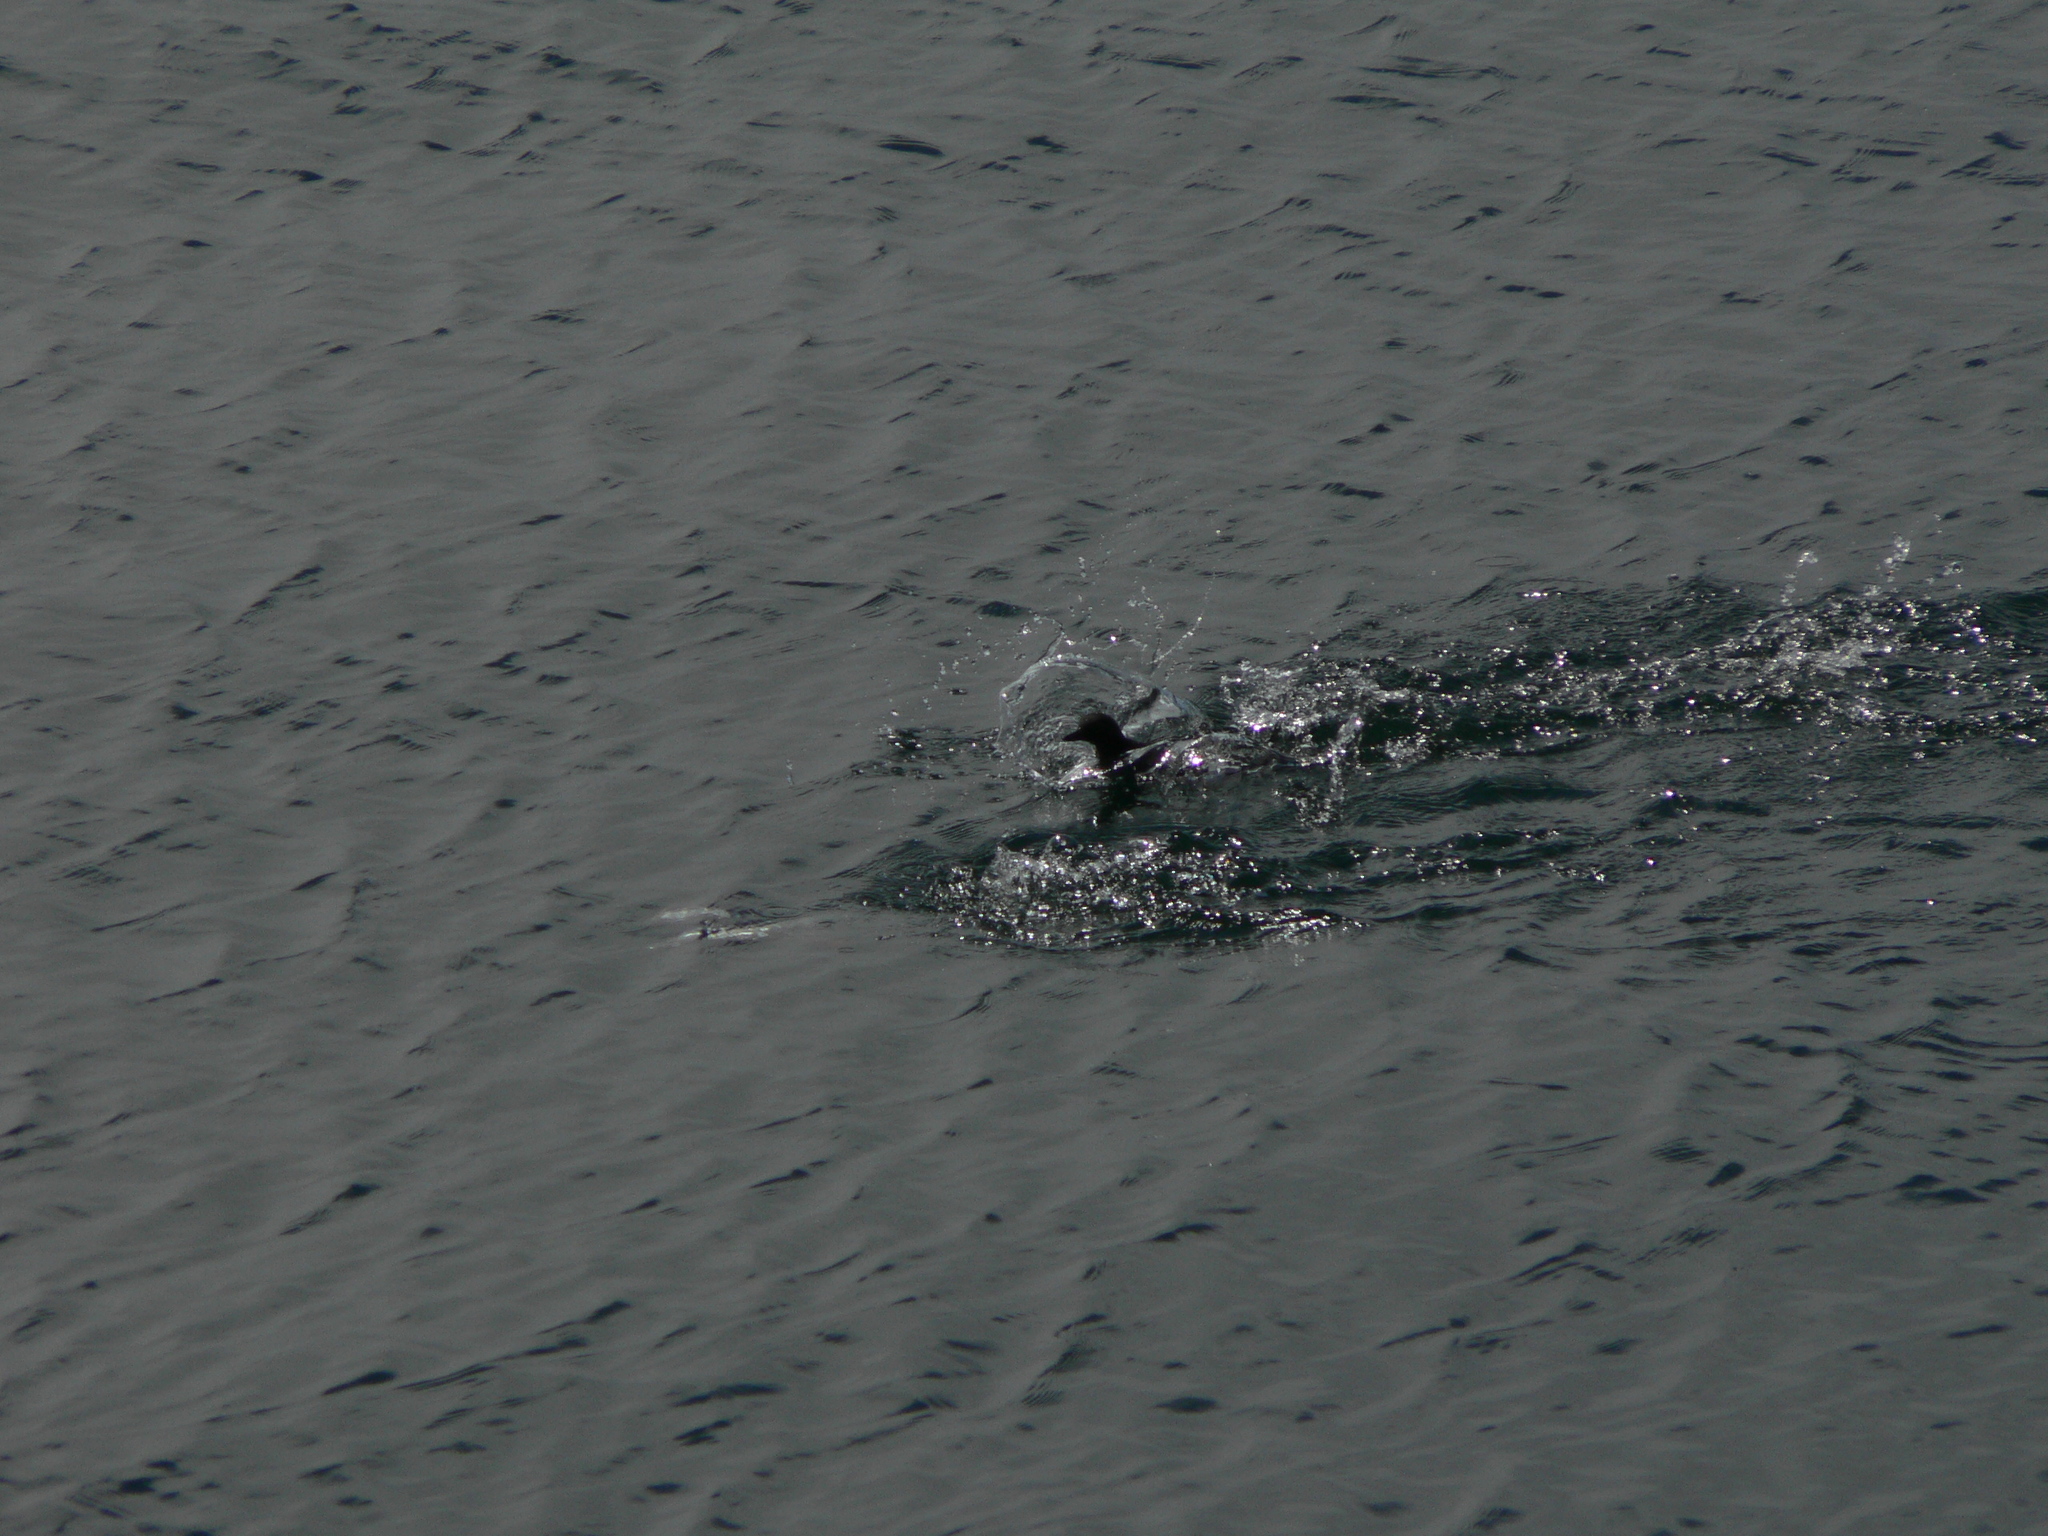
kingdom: Animalia
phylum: Chordata
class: Aves
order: Charadriiformes
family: Alcidae
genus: Cepphus
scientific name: Cepphus columba
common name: Pigeon guillemot
